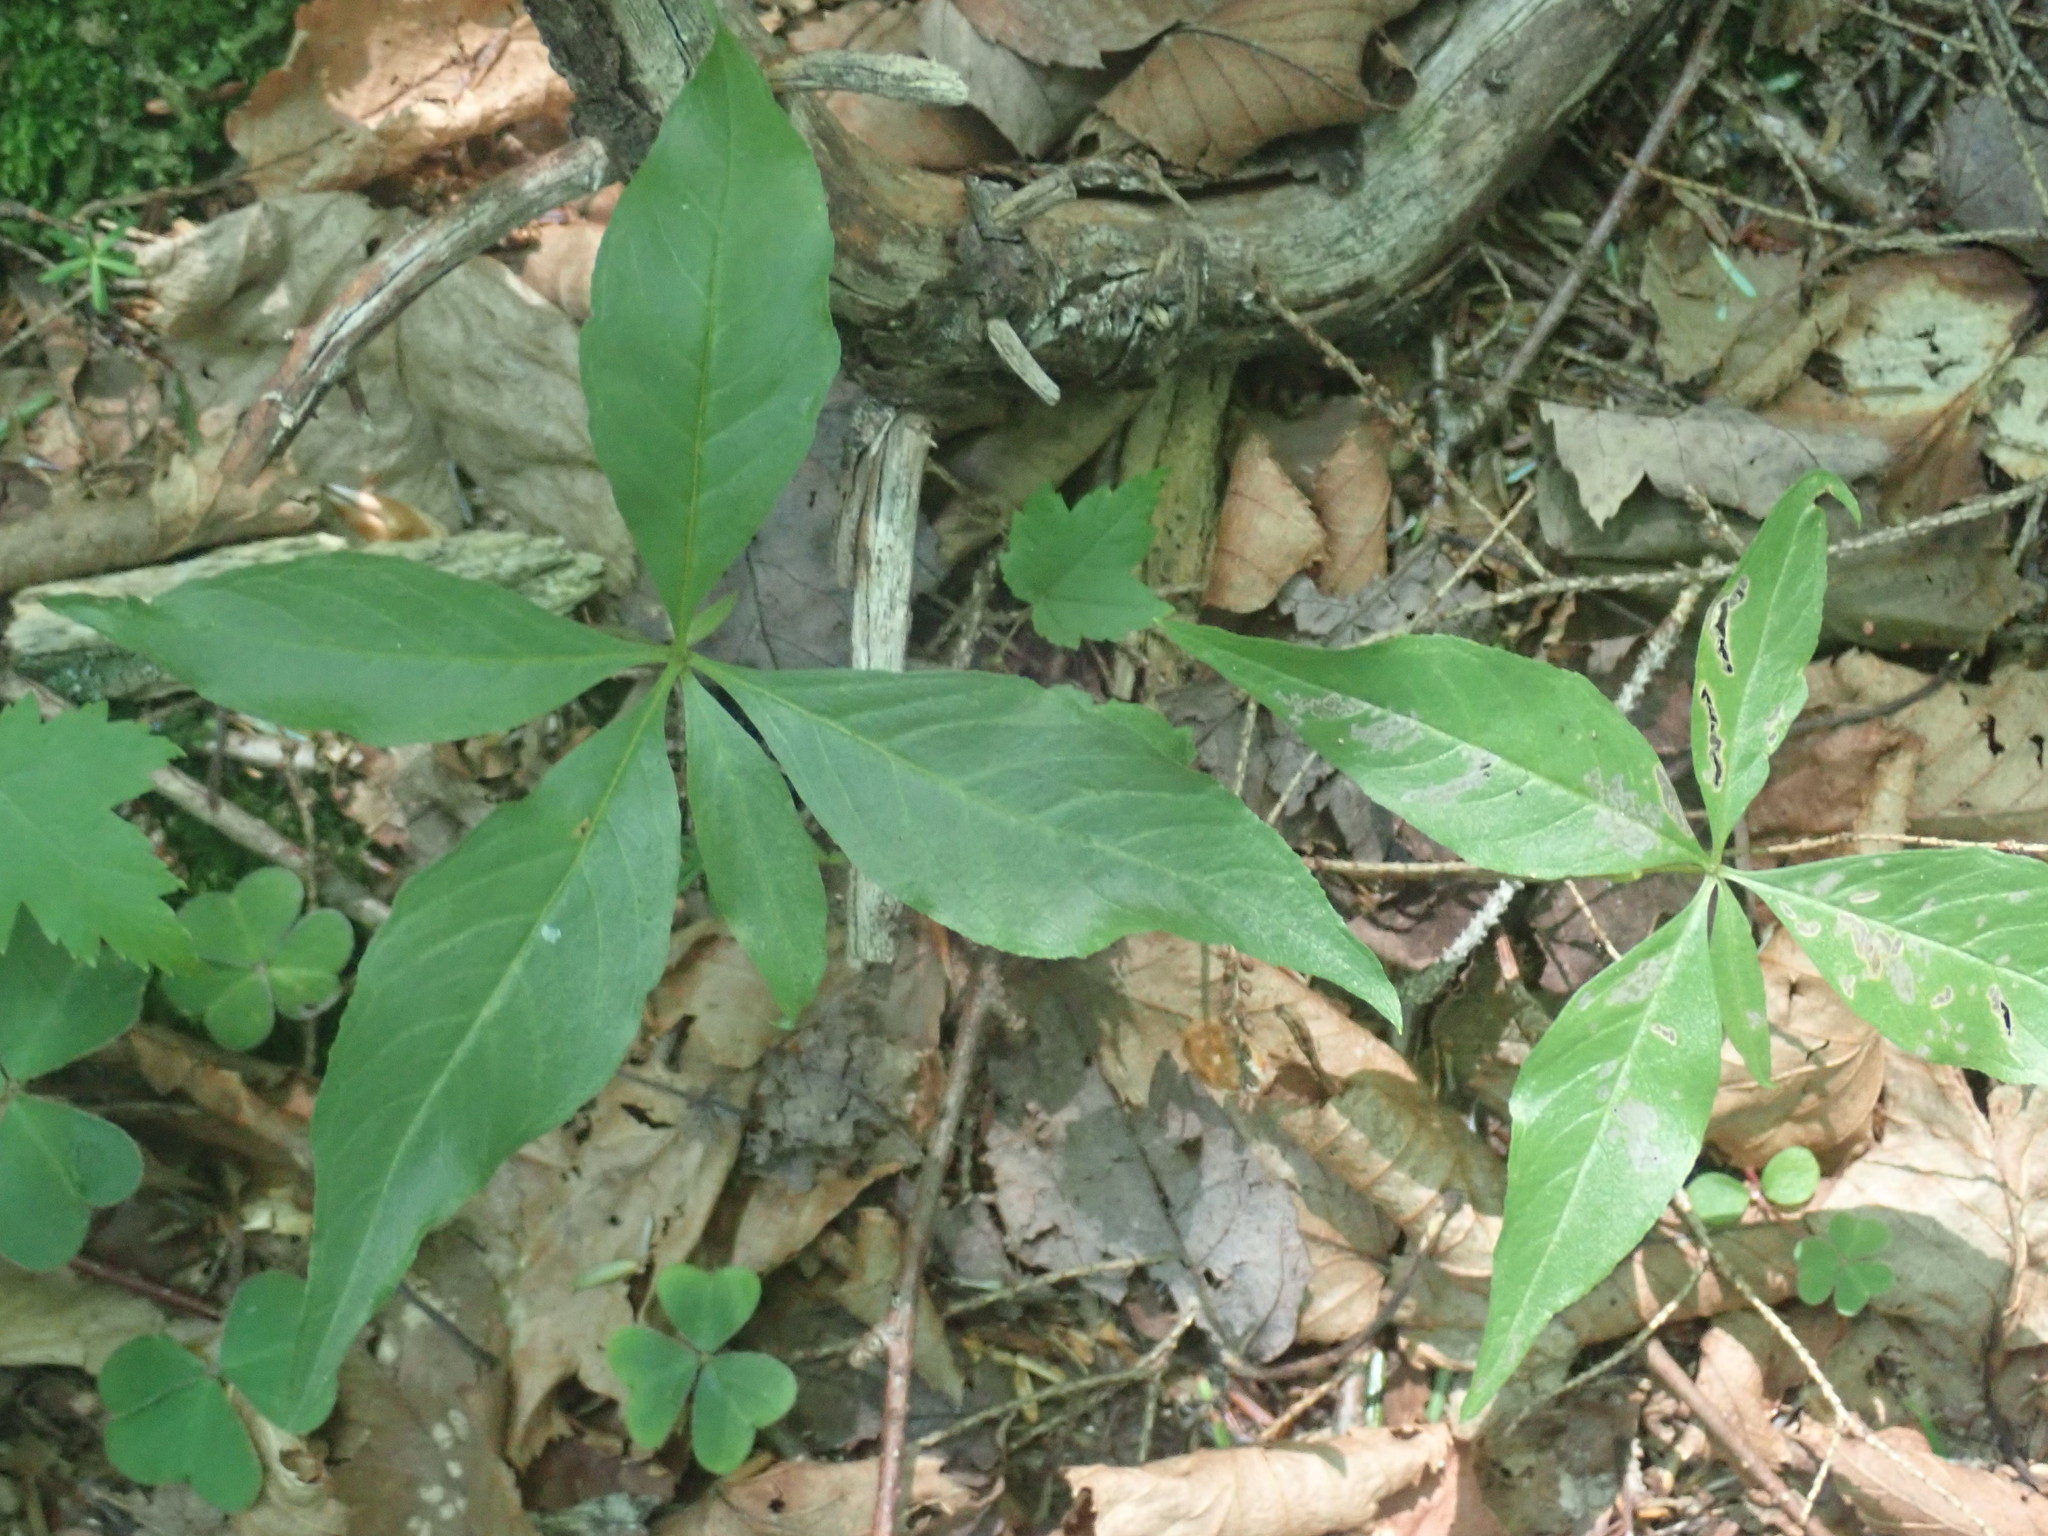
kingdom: Plantae
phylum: Tracheophyta
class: Magnoliopsida
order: Ericales
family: Primulaceae
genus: Lysimachia
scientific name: Lysimachia borealis
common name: American starflower
